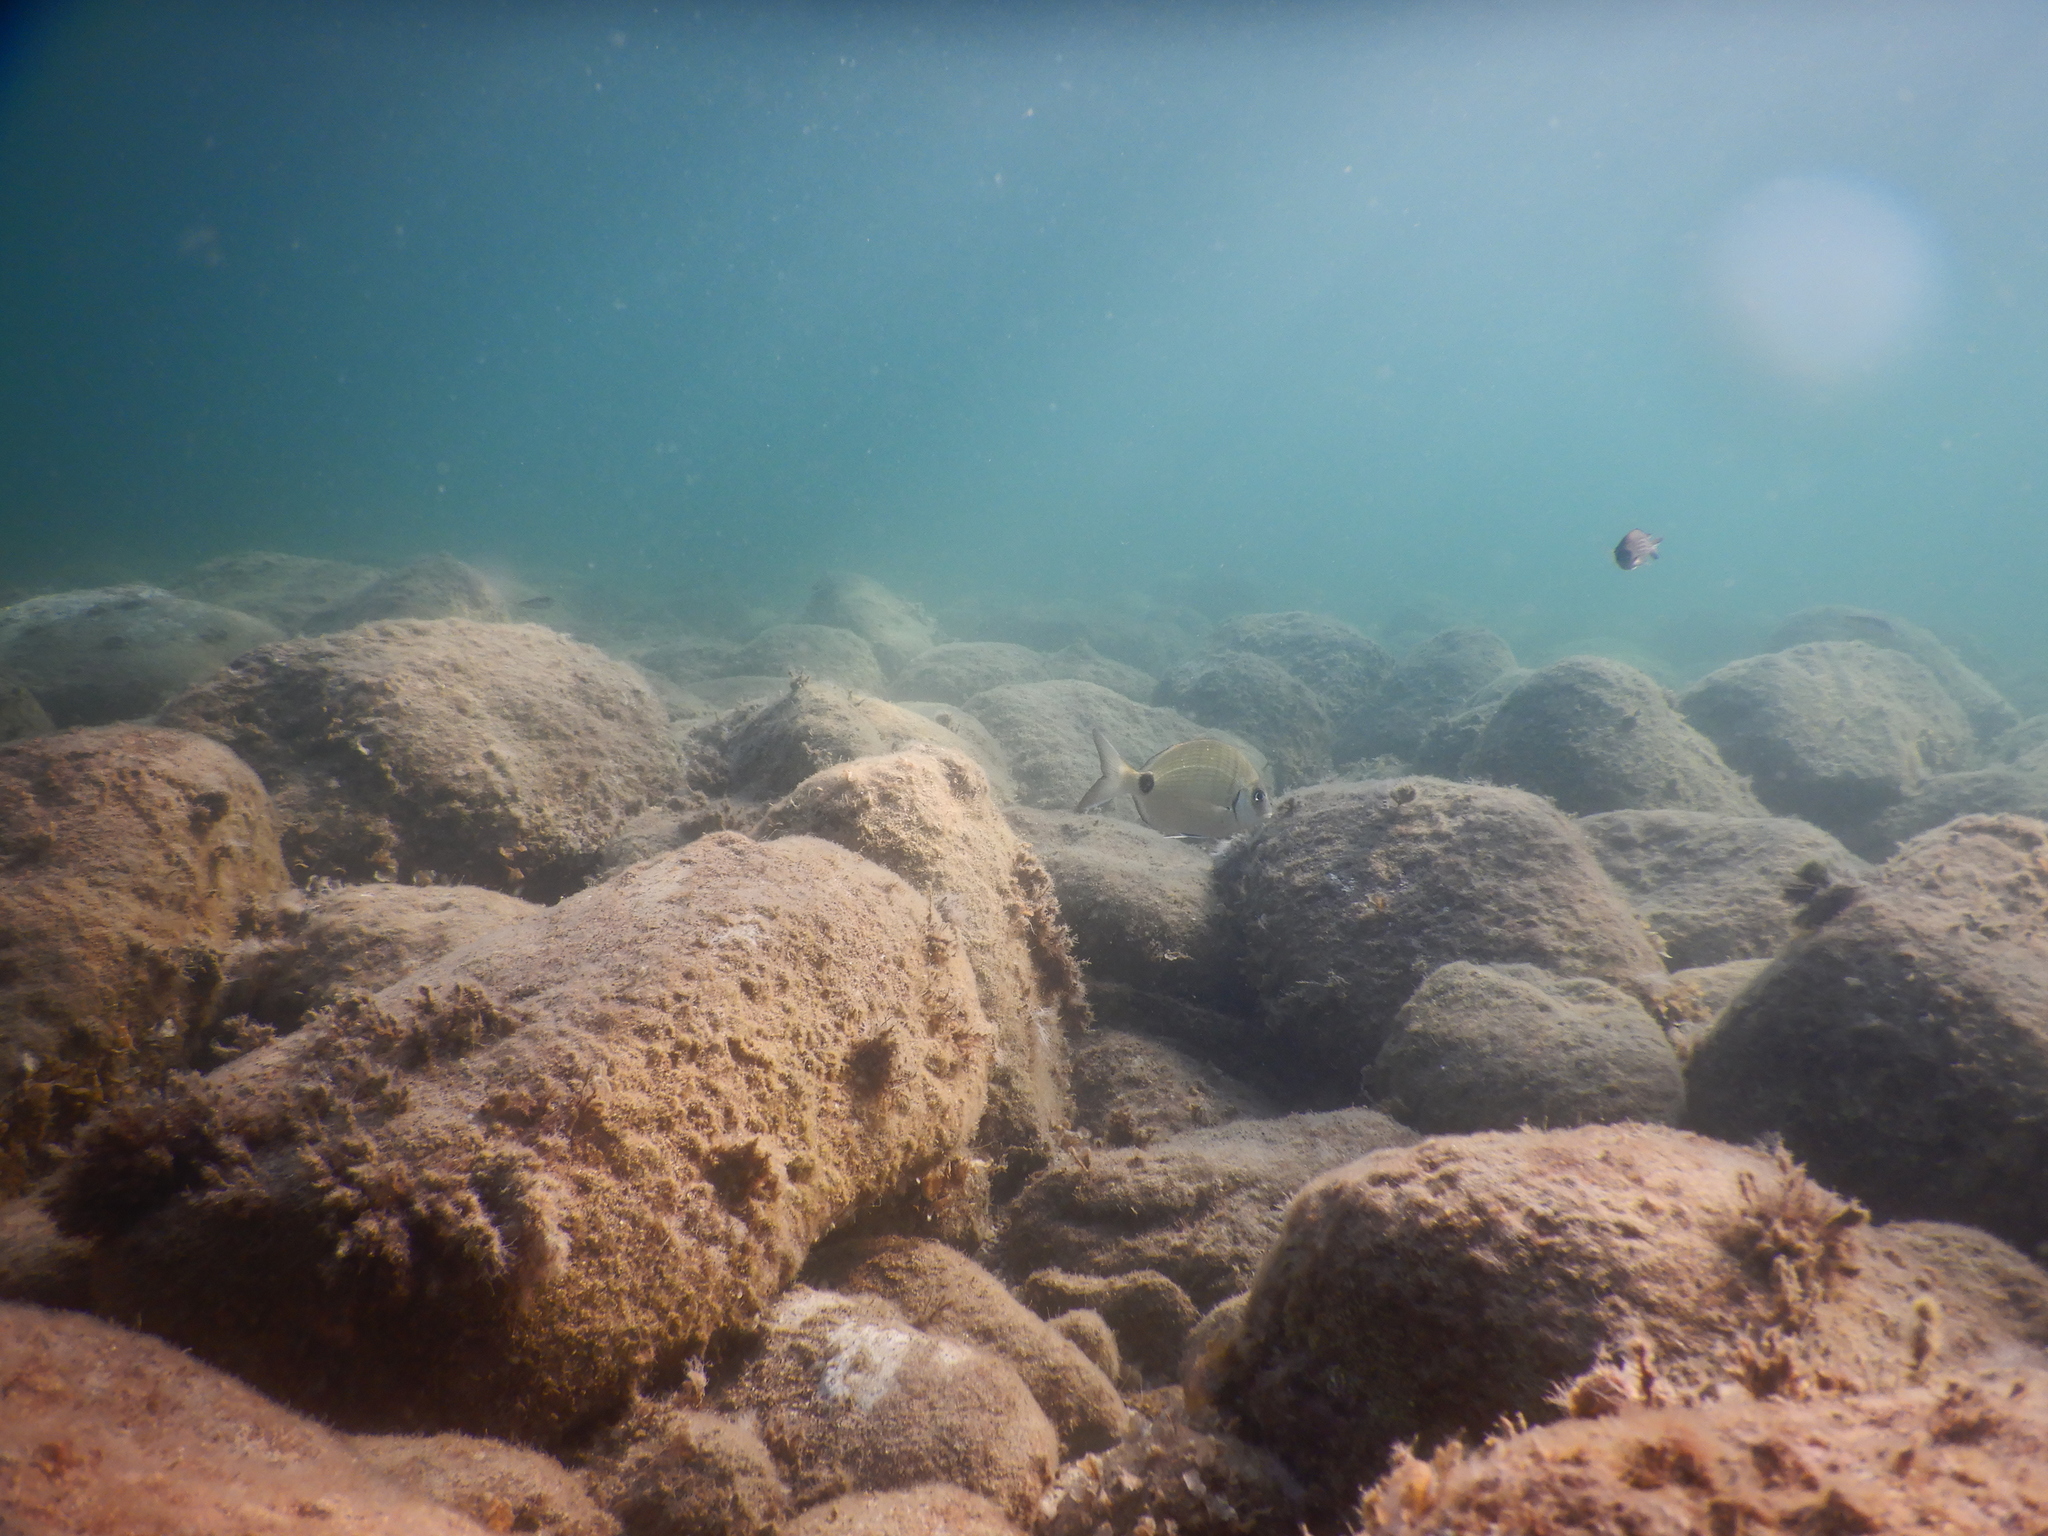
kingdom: Animalia
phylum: Chordata
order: Perciformes
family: Sparidae
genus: Diplodus
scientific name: Diplodus sargus
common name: White seabream
